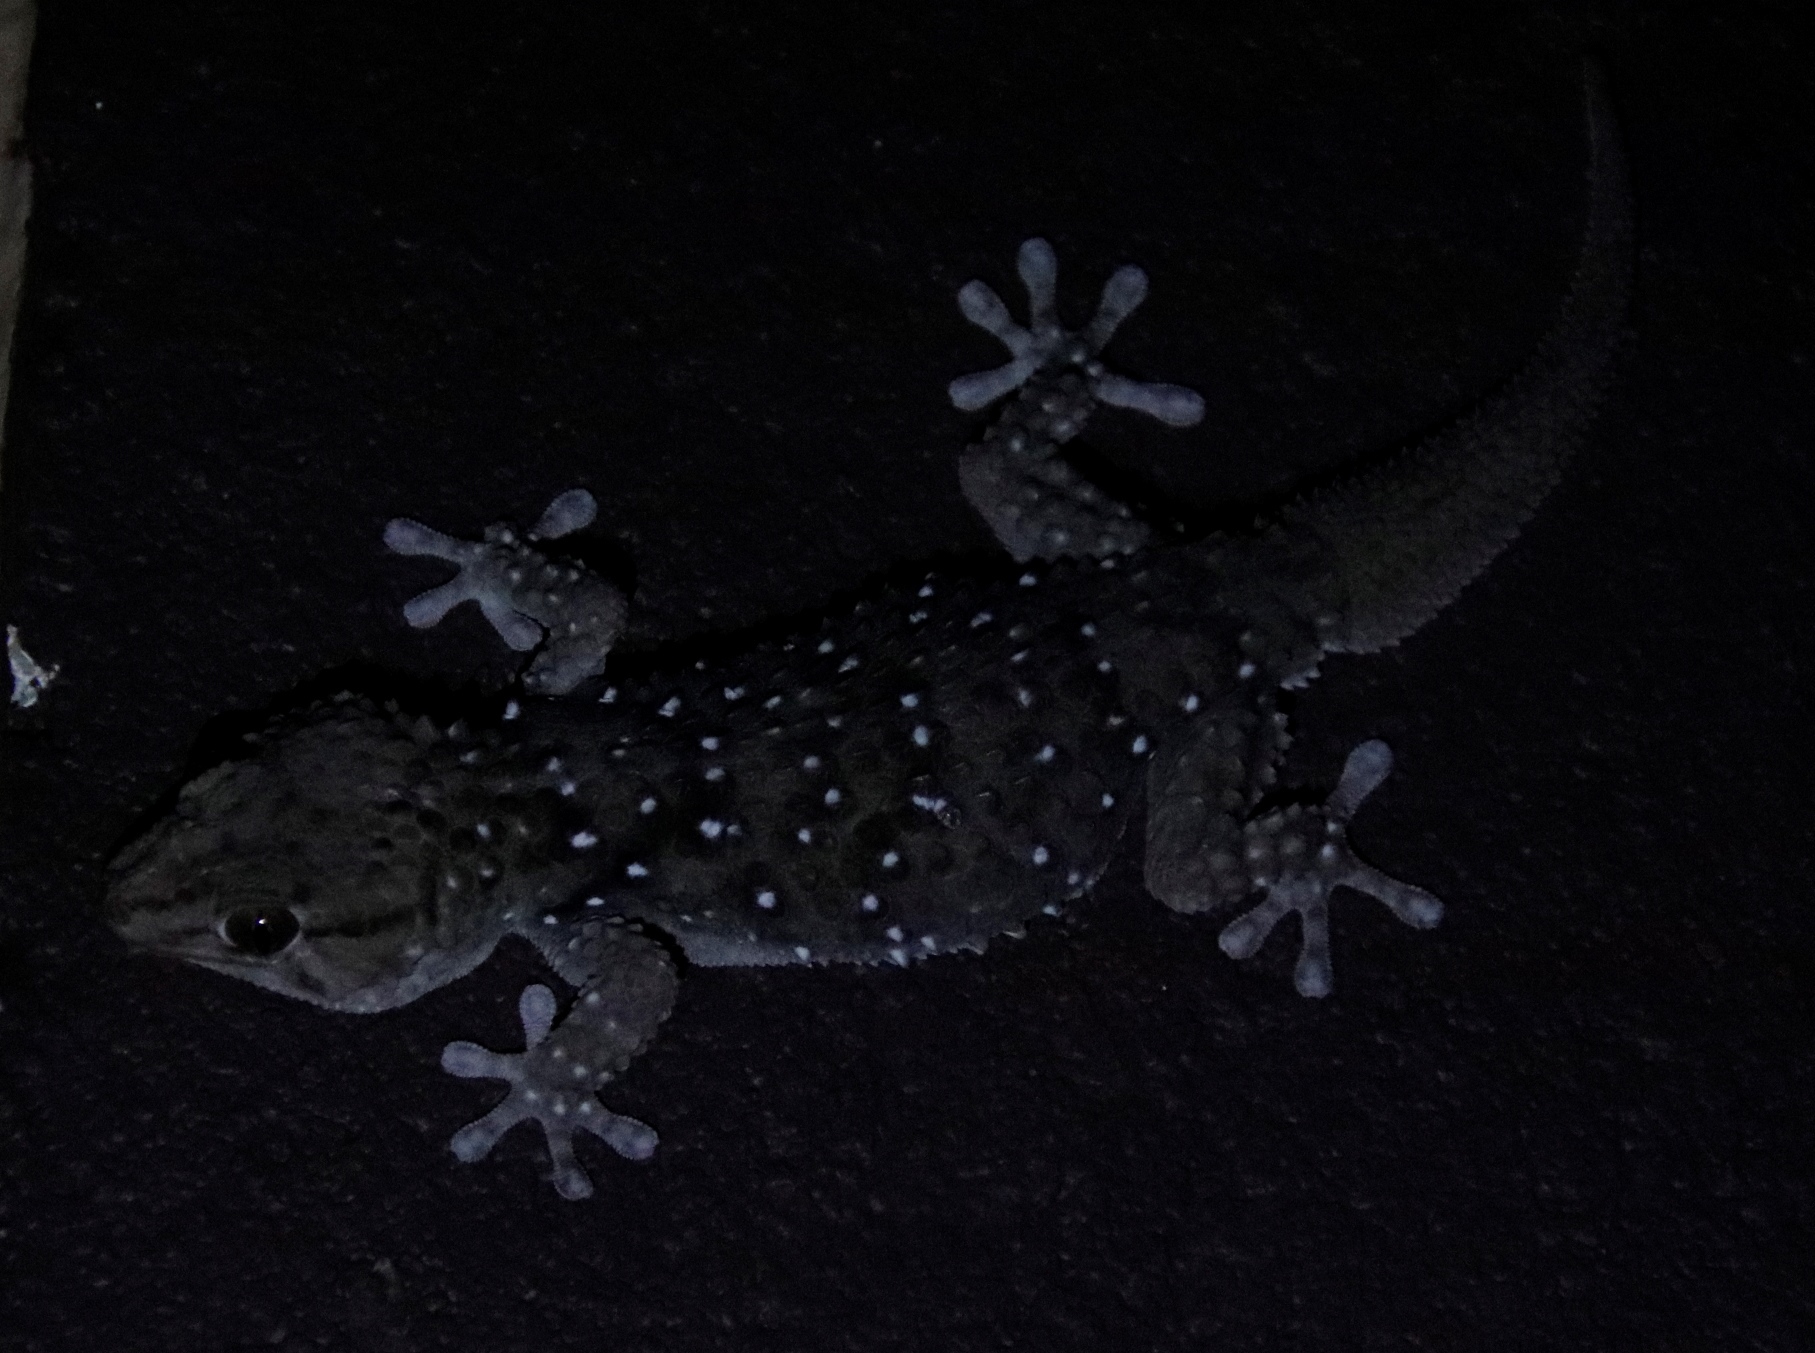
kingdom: Animalia
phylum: Chordata
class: Squamata
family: Gekkonidae
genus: Chondrodactylus
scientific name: Chondrodactylus bibronii
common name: Bibron's gecko
